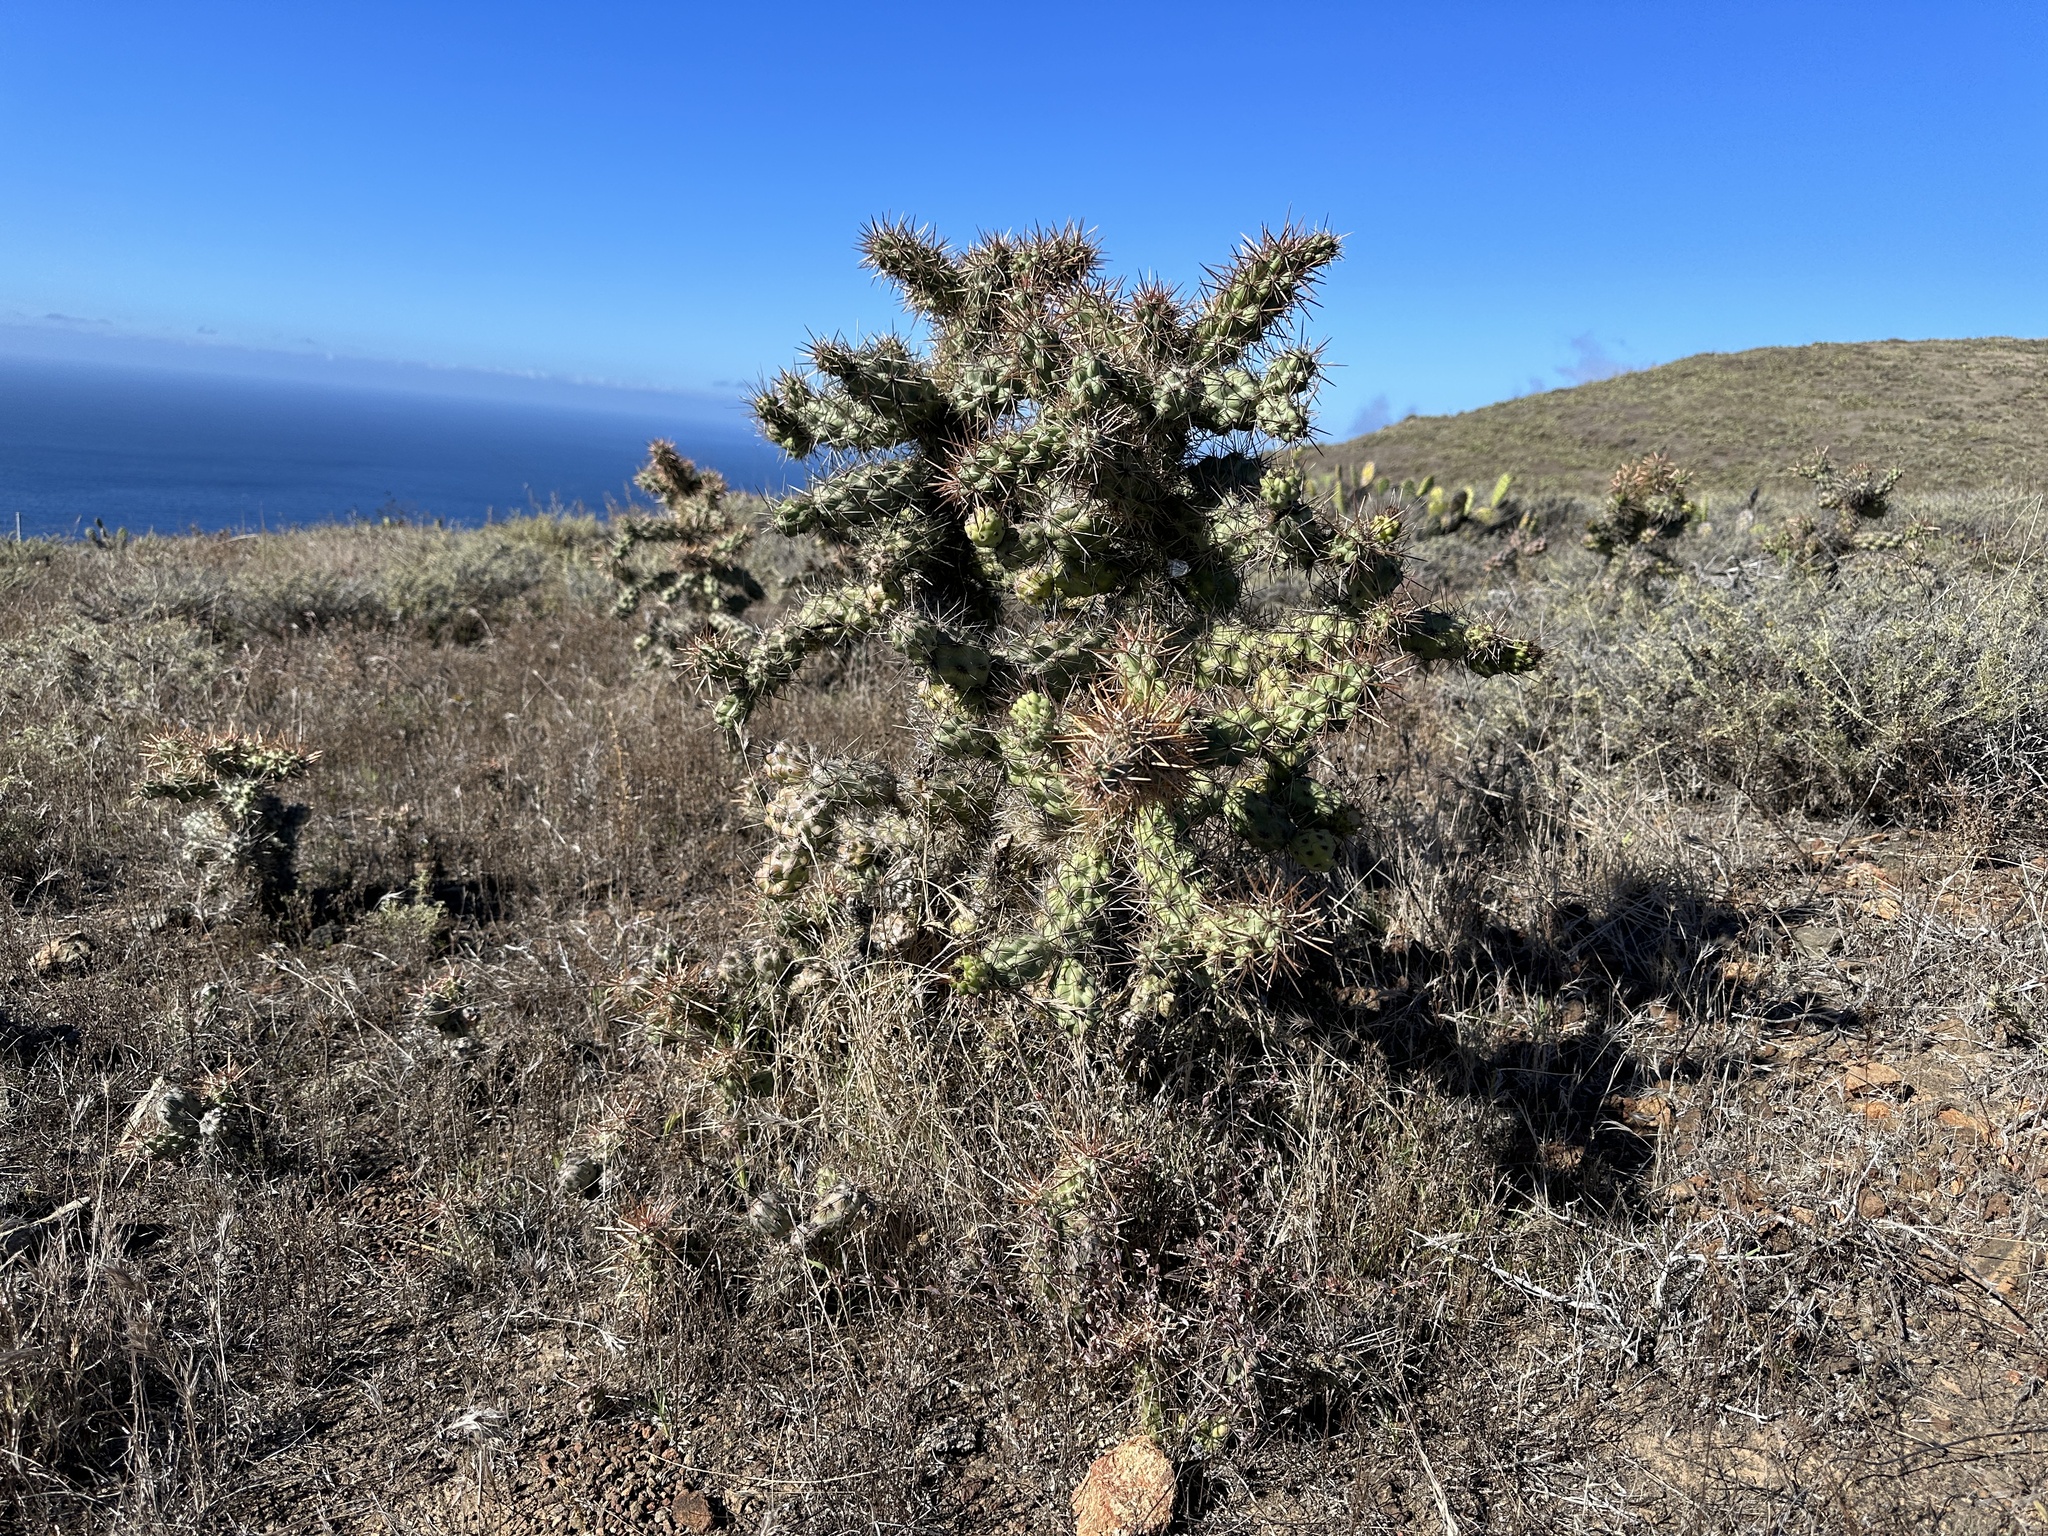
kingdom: Plantae
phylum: Tracheophyta
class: Magnoliopsida
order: Caryophyllales
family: Cactaceae
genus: Cylindropuntia
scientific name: Cylindropuntia prolifera
